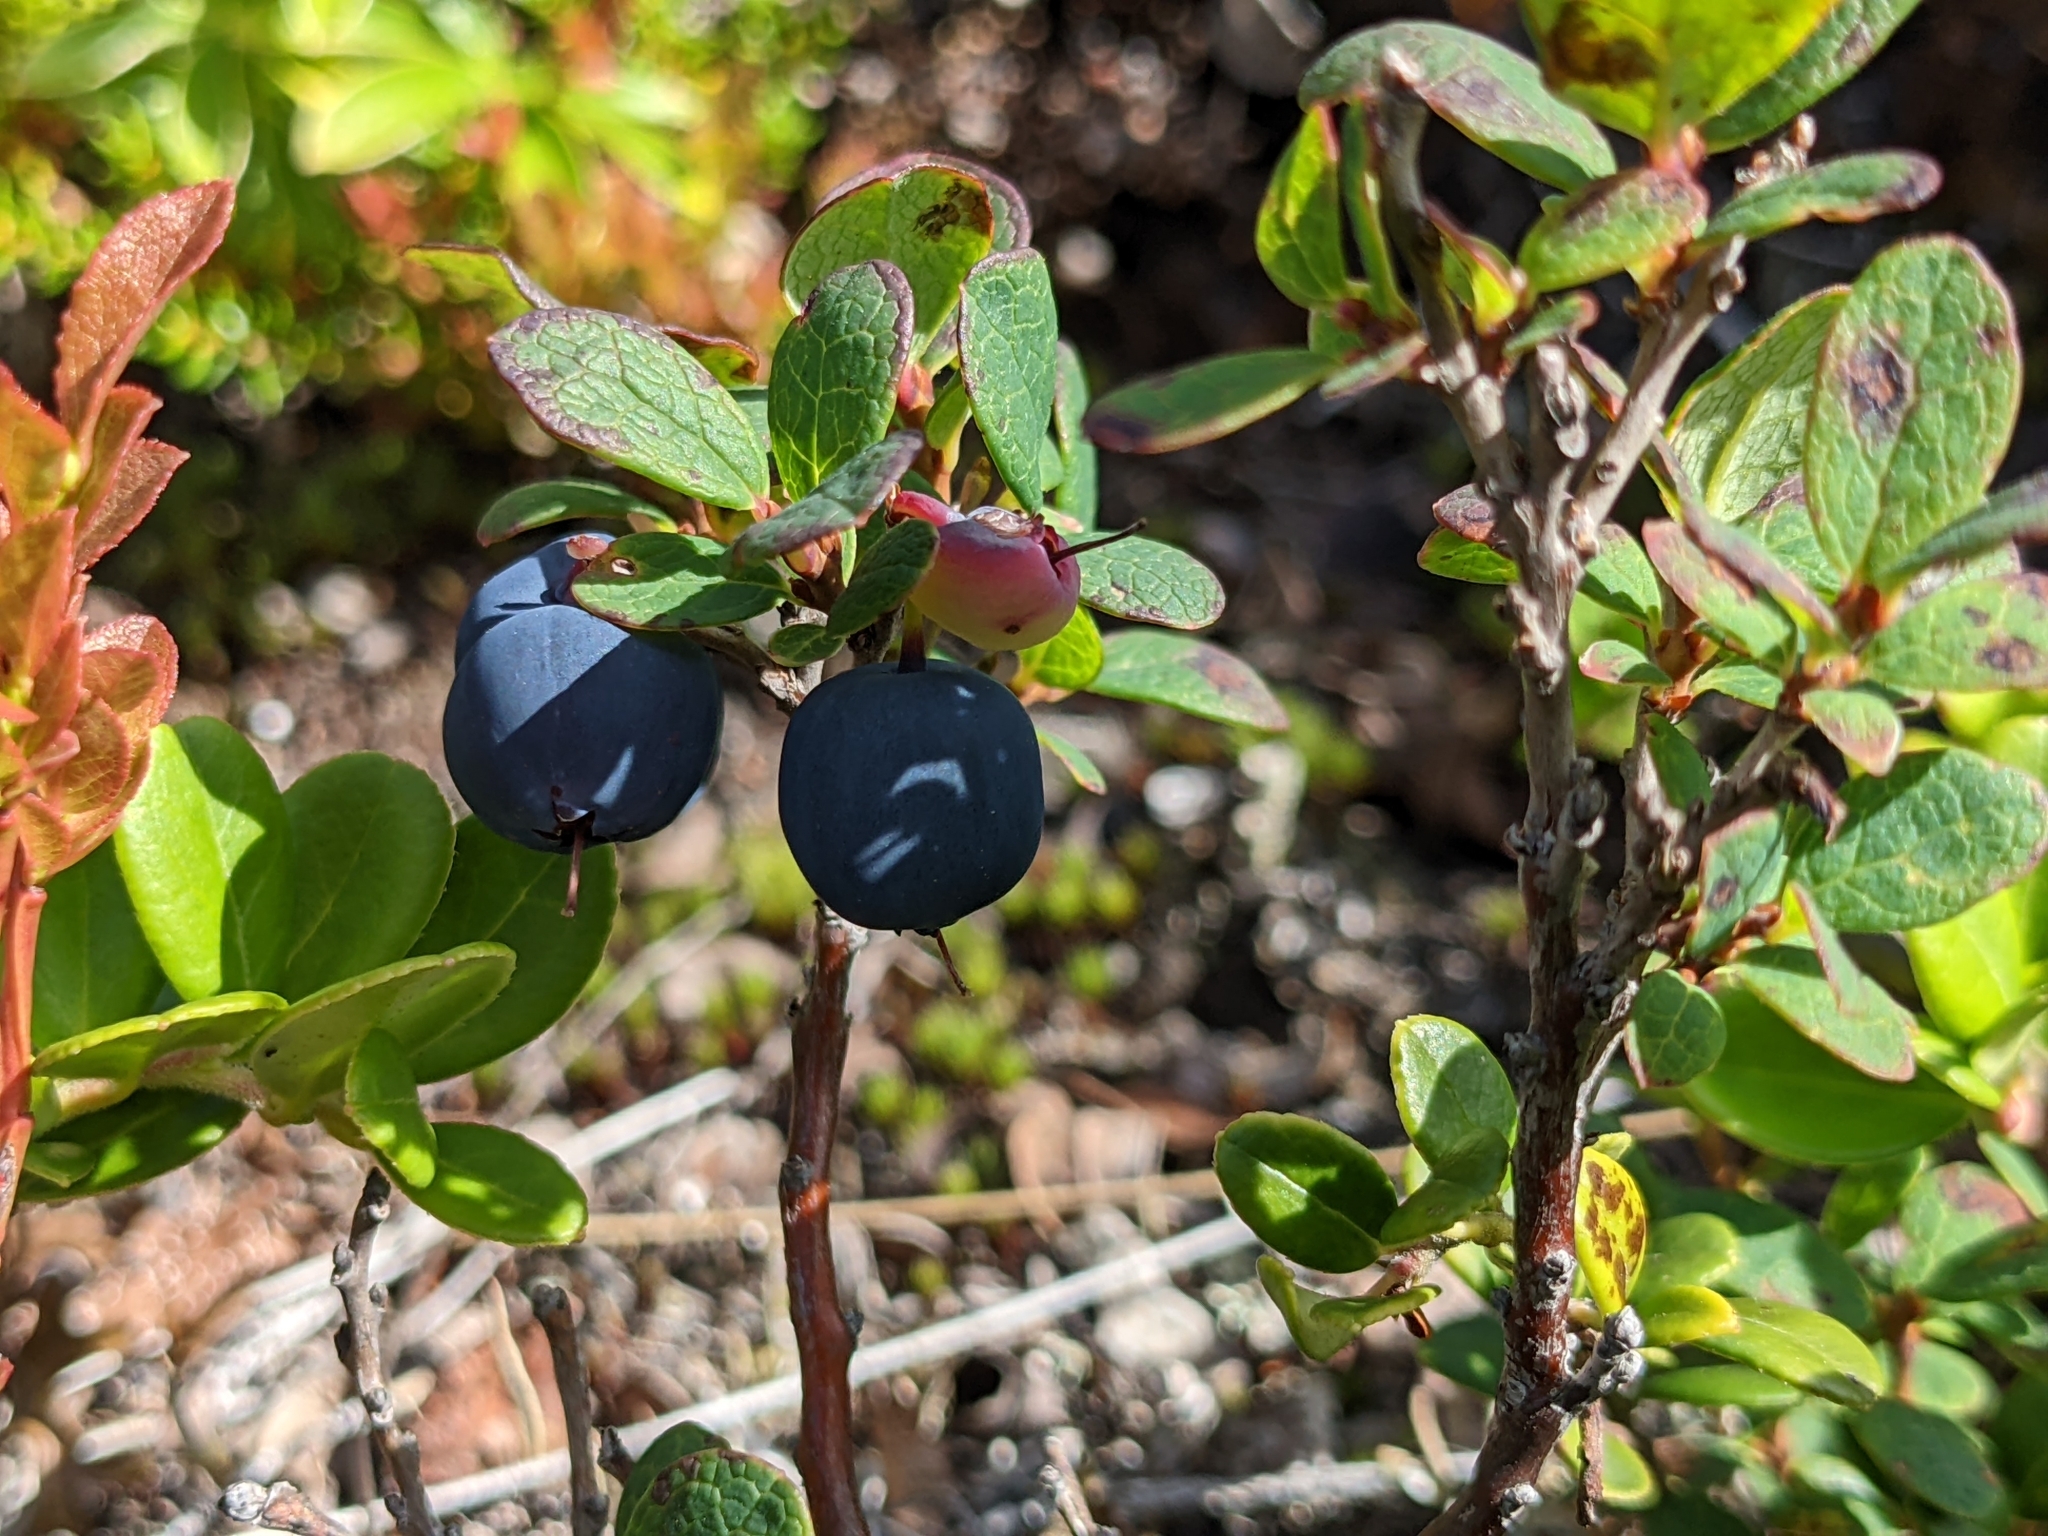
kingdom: Plantae
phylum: Tracheophyta
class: Magnoliopsida
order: Ericales
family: Ericaceae
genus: Vaccinium
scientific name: Vaccinium uliginosum
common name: Bog bilberry
